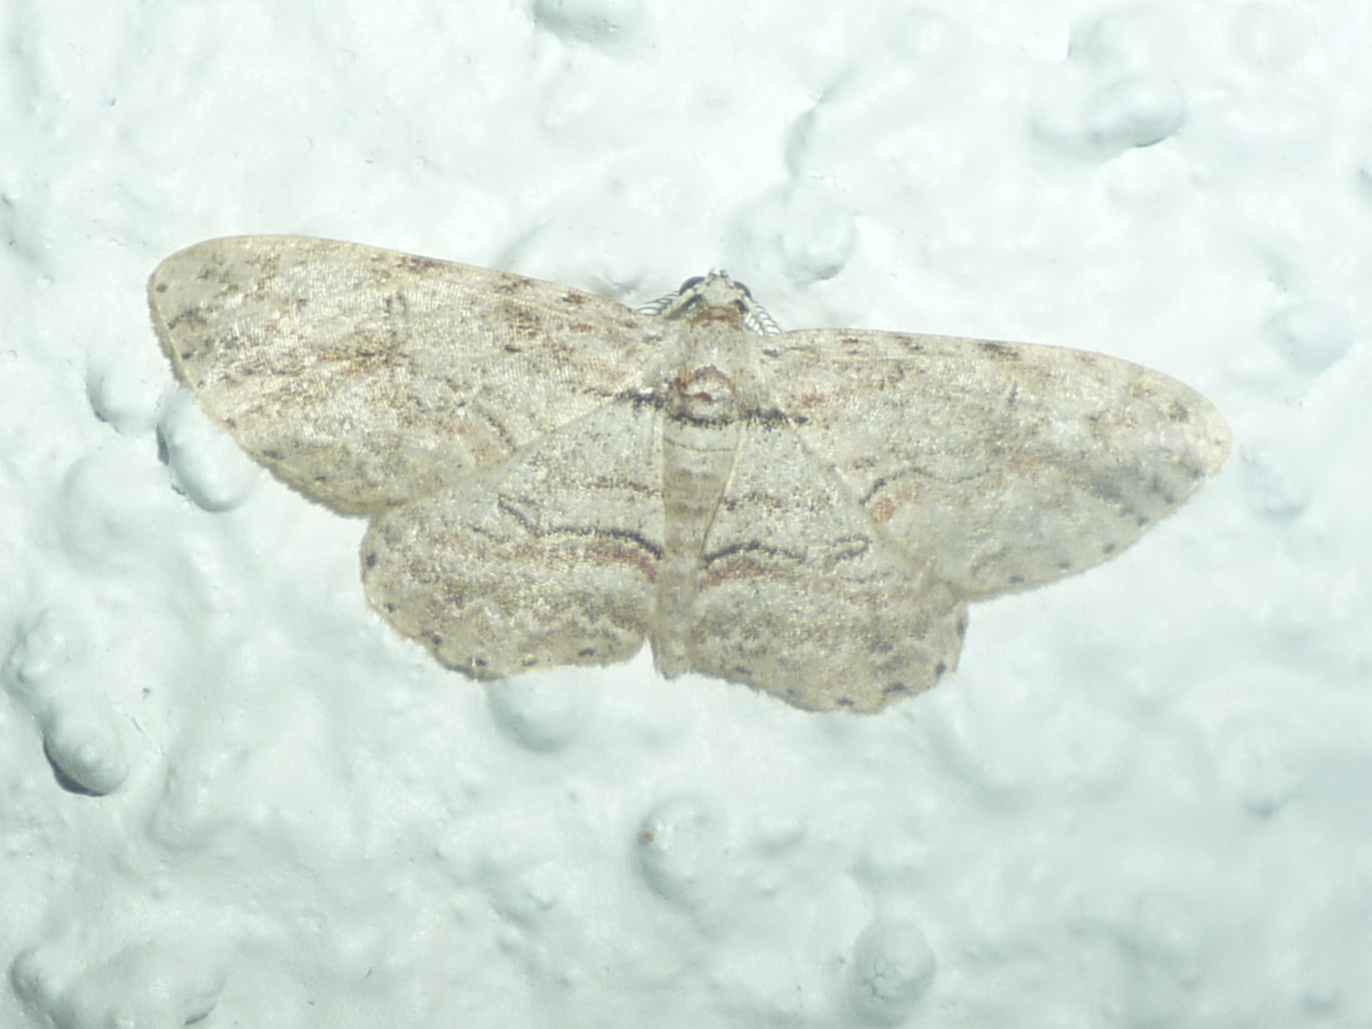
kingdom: Animalia
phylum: Arthropoda
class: Insecta
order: Lepidoptera
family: Geometridae
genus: Iridopsis
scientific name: Iridopsis defectaria
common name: Brown-shaded gray
